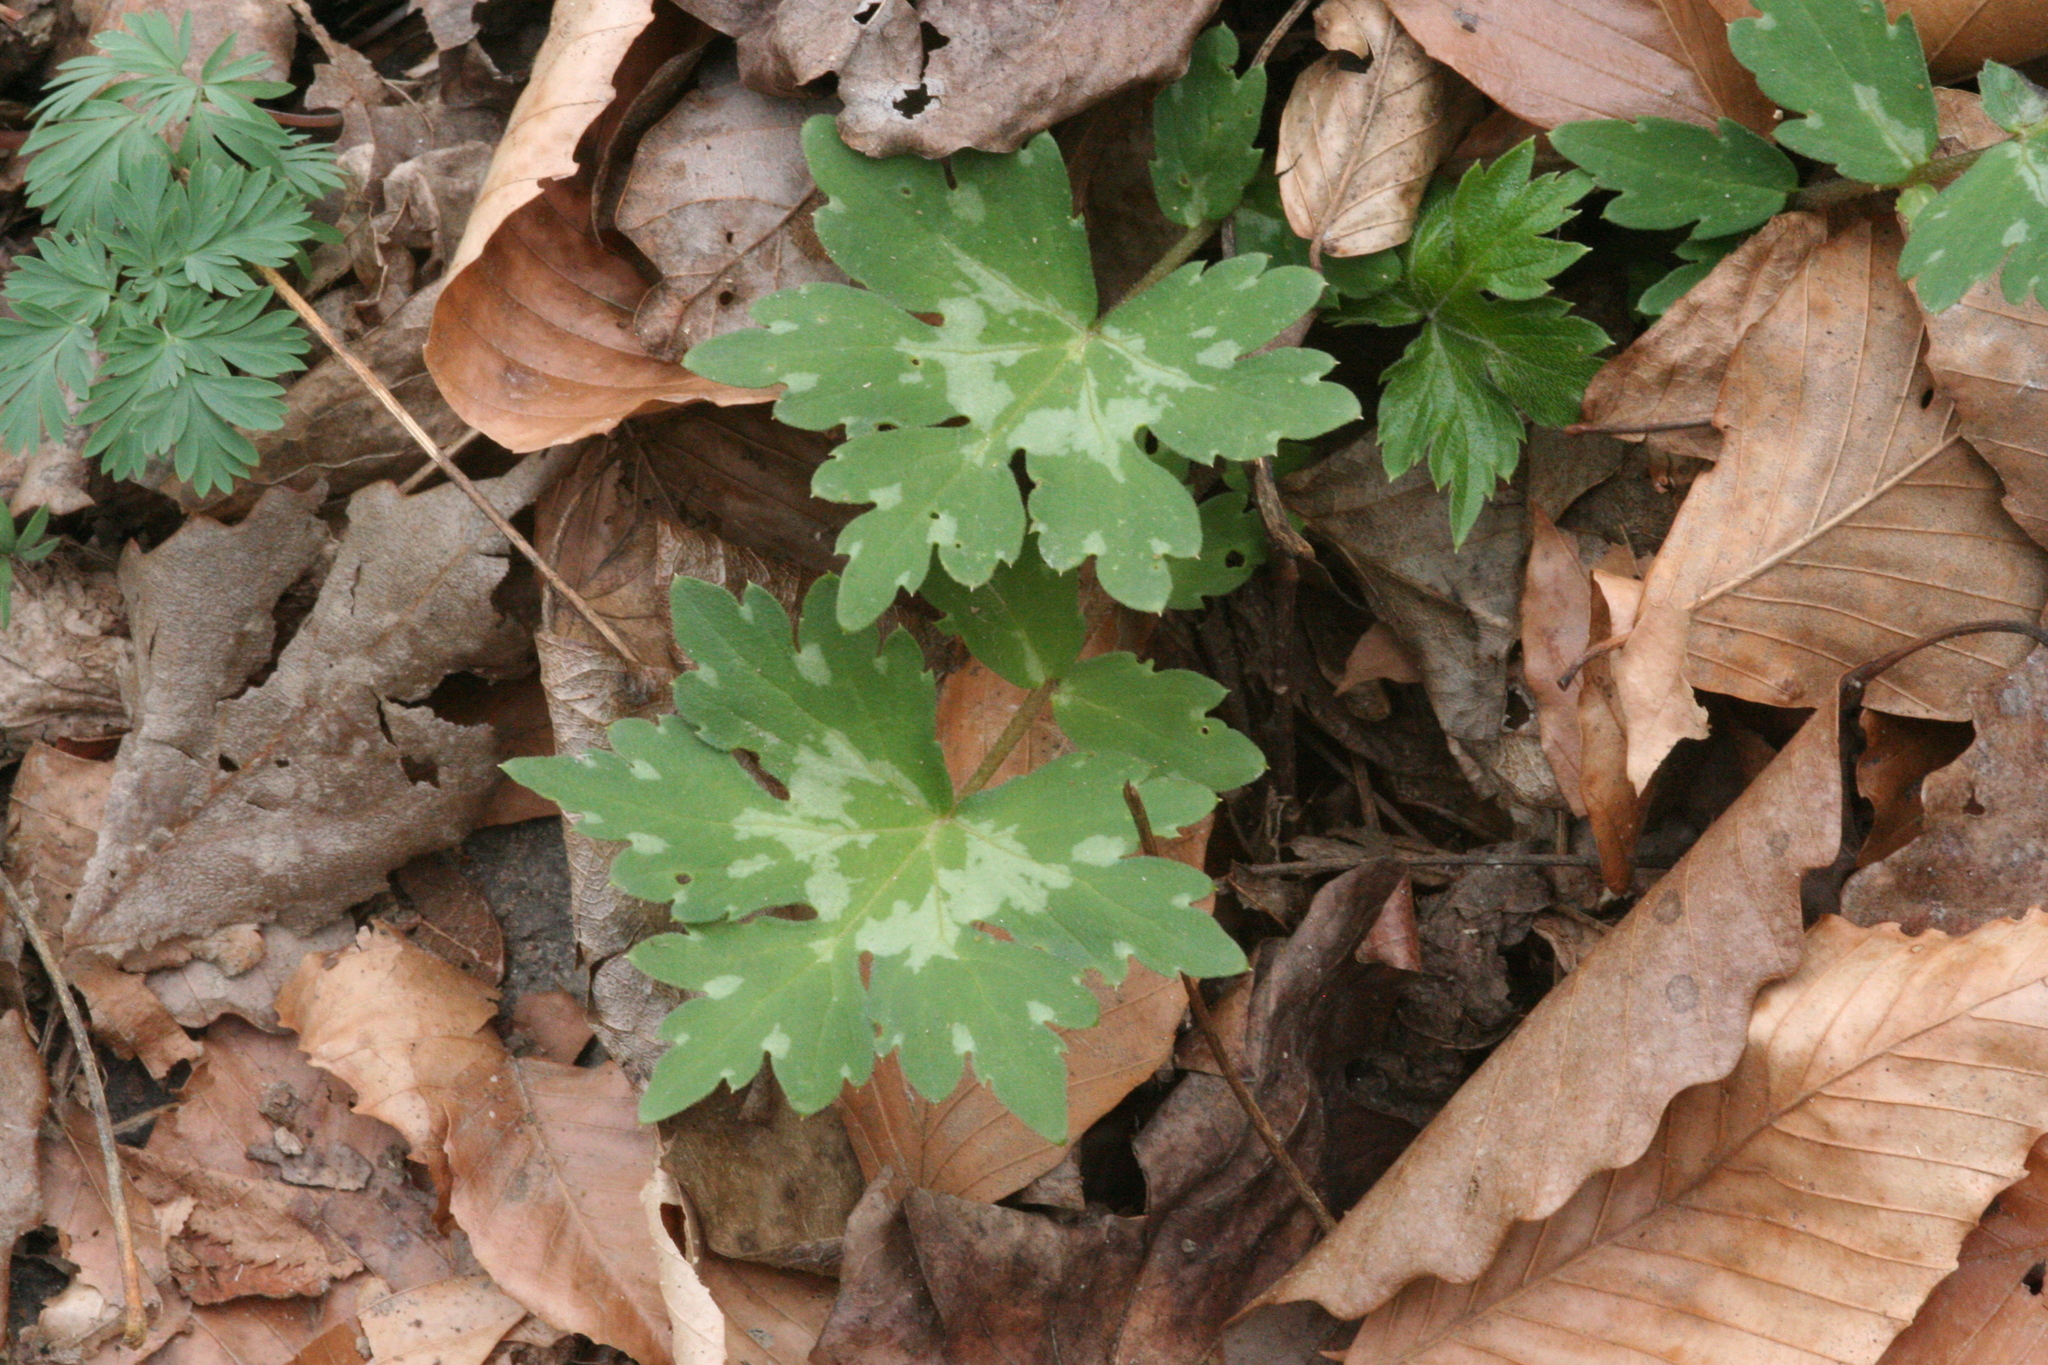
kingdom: Plantae
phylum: Tracheophyta
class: Magnoliopsida
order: Boraginales
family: Hydrophyllaceae
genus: Hydrophyllum
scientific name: Hydrophyllum virginianum
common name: Virginia waterleaf
